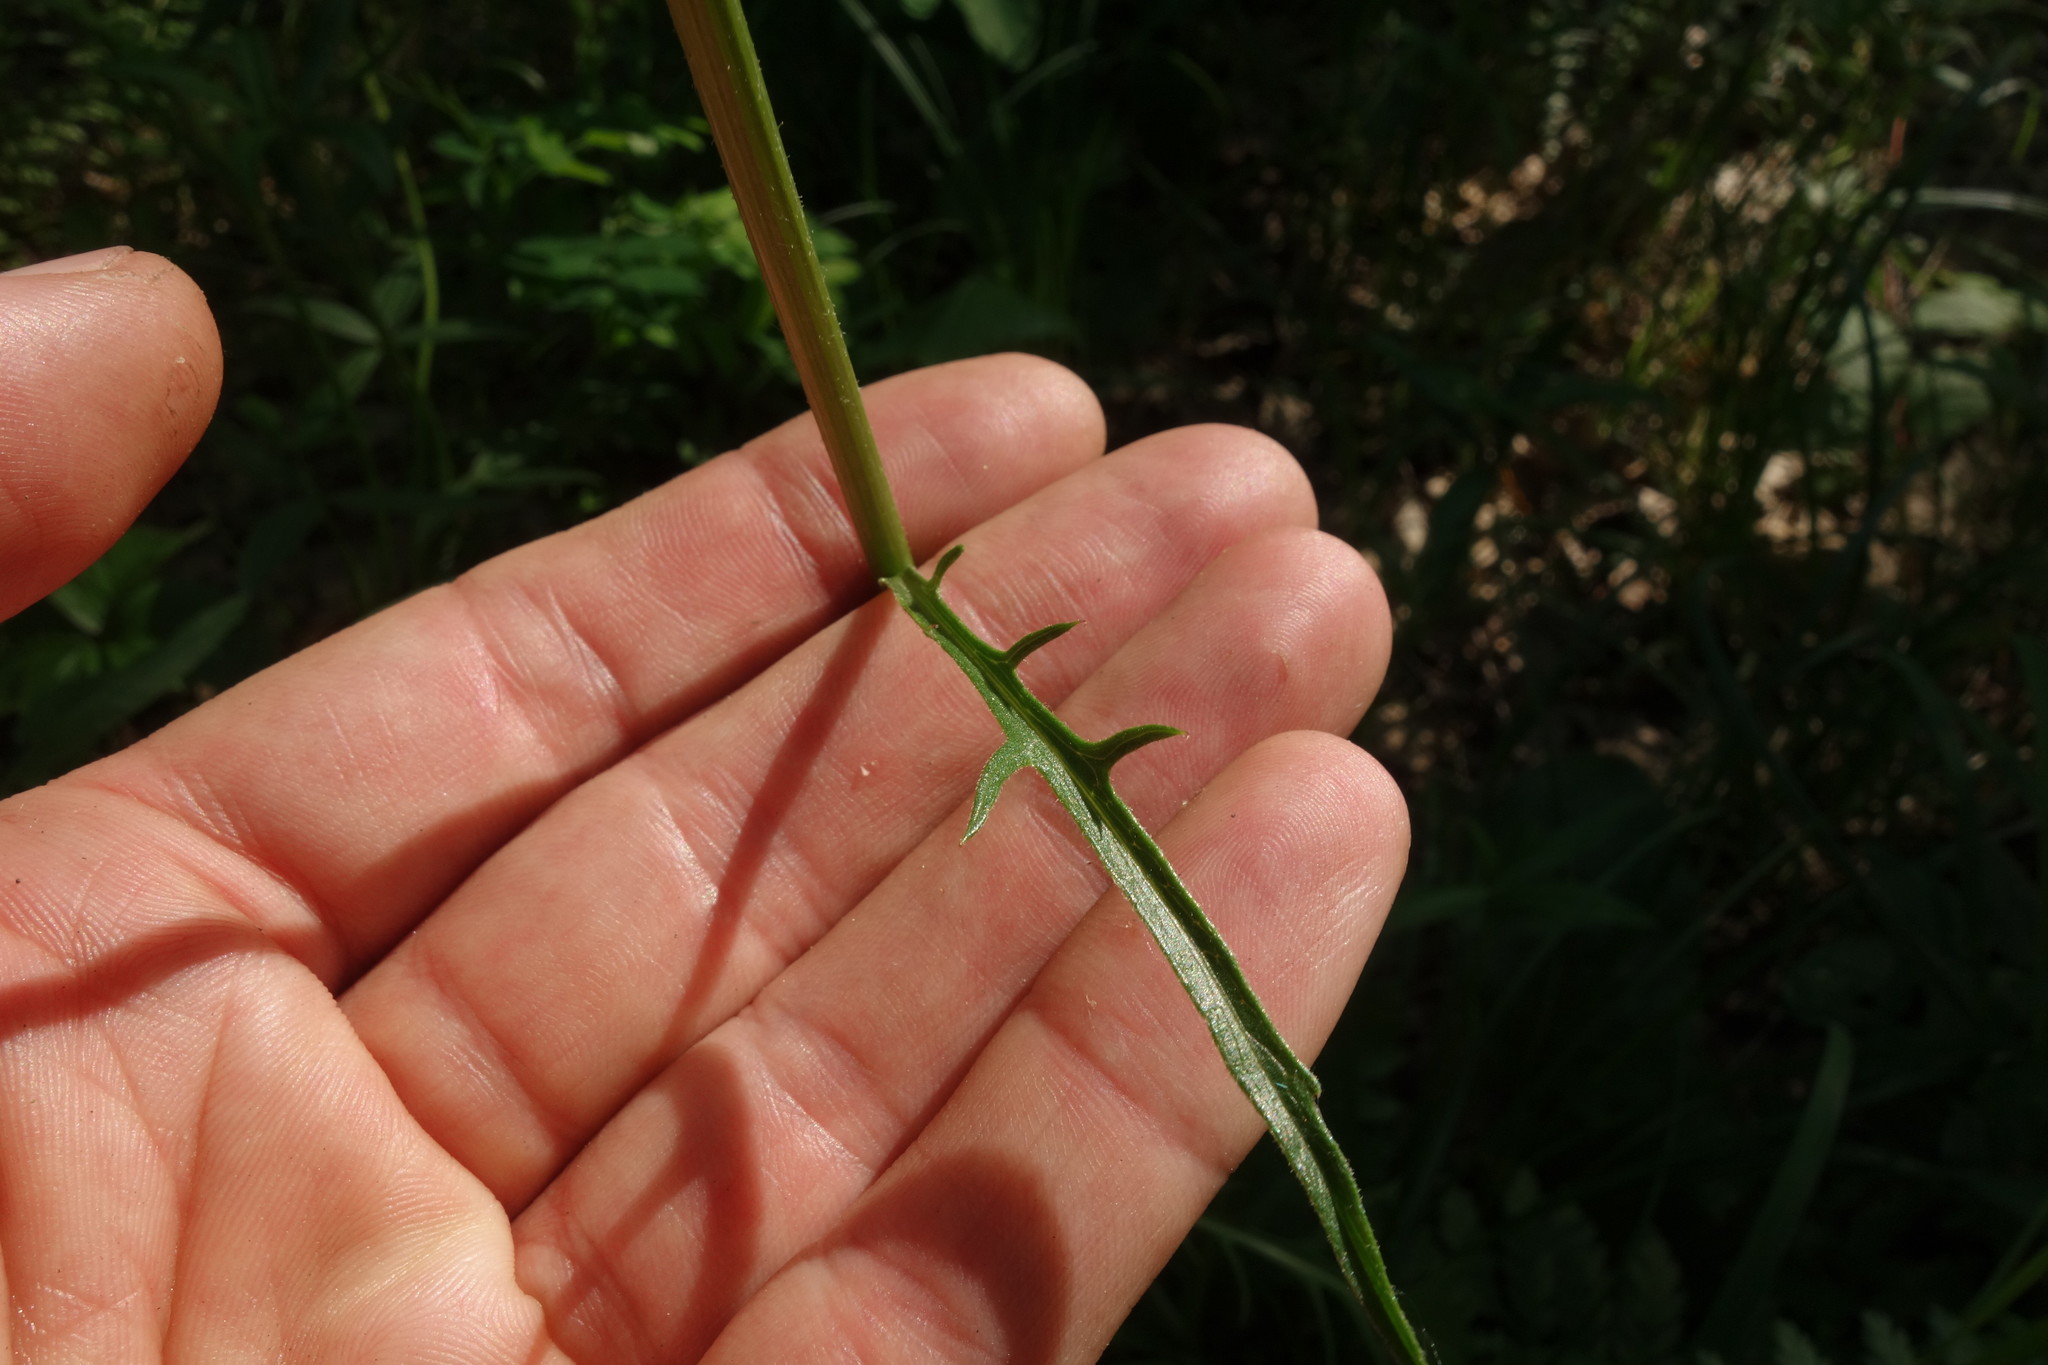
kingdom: Plantae
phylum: Tracheophyta
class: Magnoliopsida
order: Asterales
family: Asteraceae
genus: Klasea
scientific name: Klasea lycopifolia
